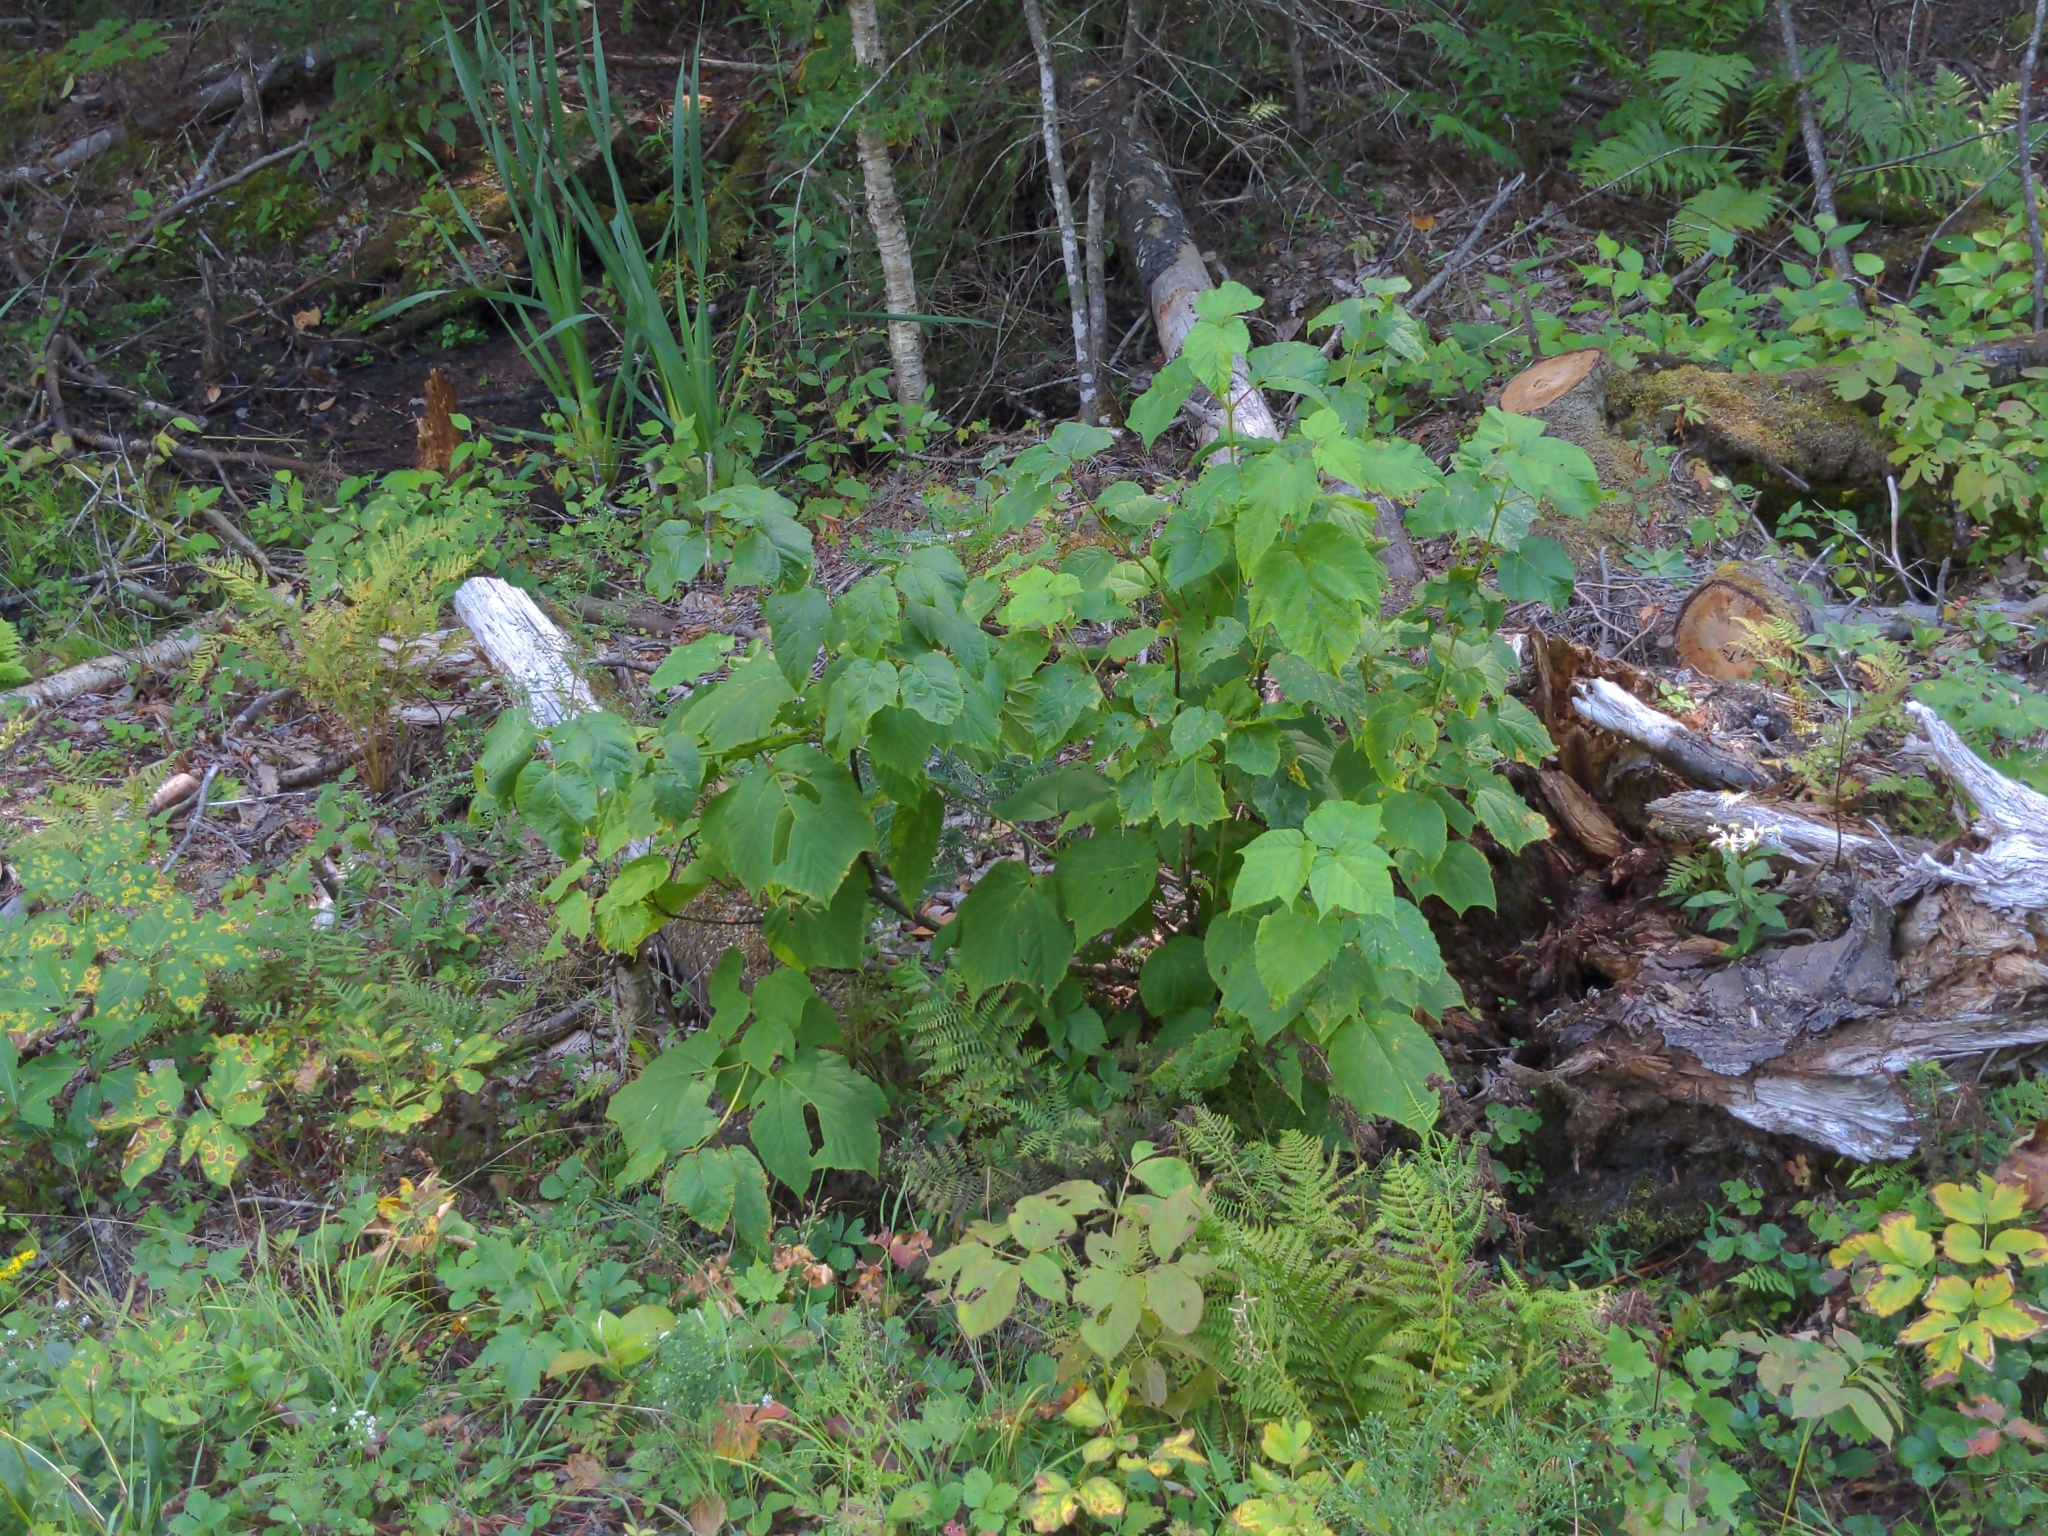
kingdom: Plantae
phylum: Tracheophyta
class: Magnoliopsida
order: Sapindales
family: Sapindaceae
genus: Acer
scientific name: Acer pensylvanicum
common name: Moosewood
